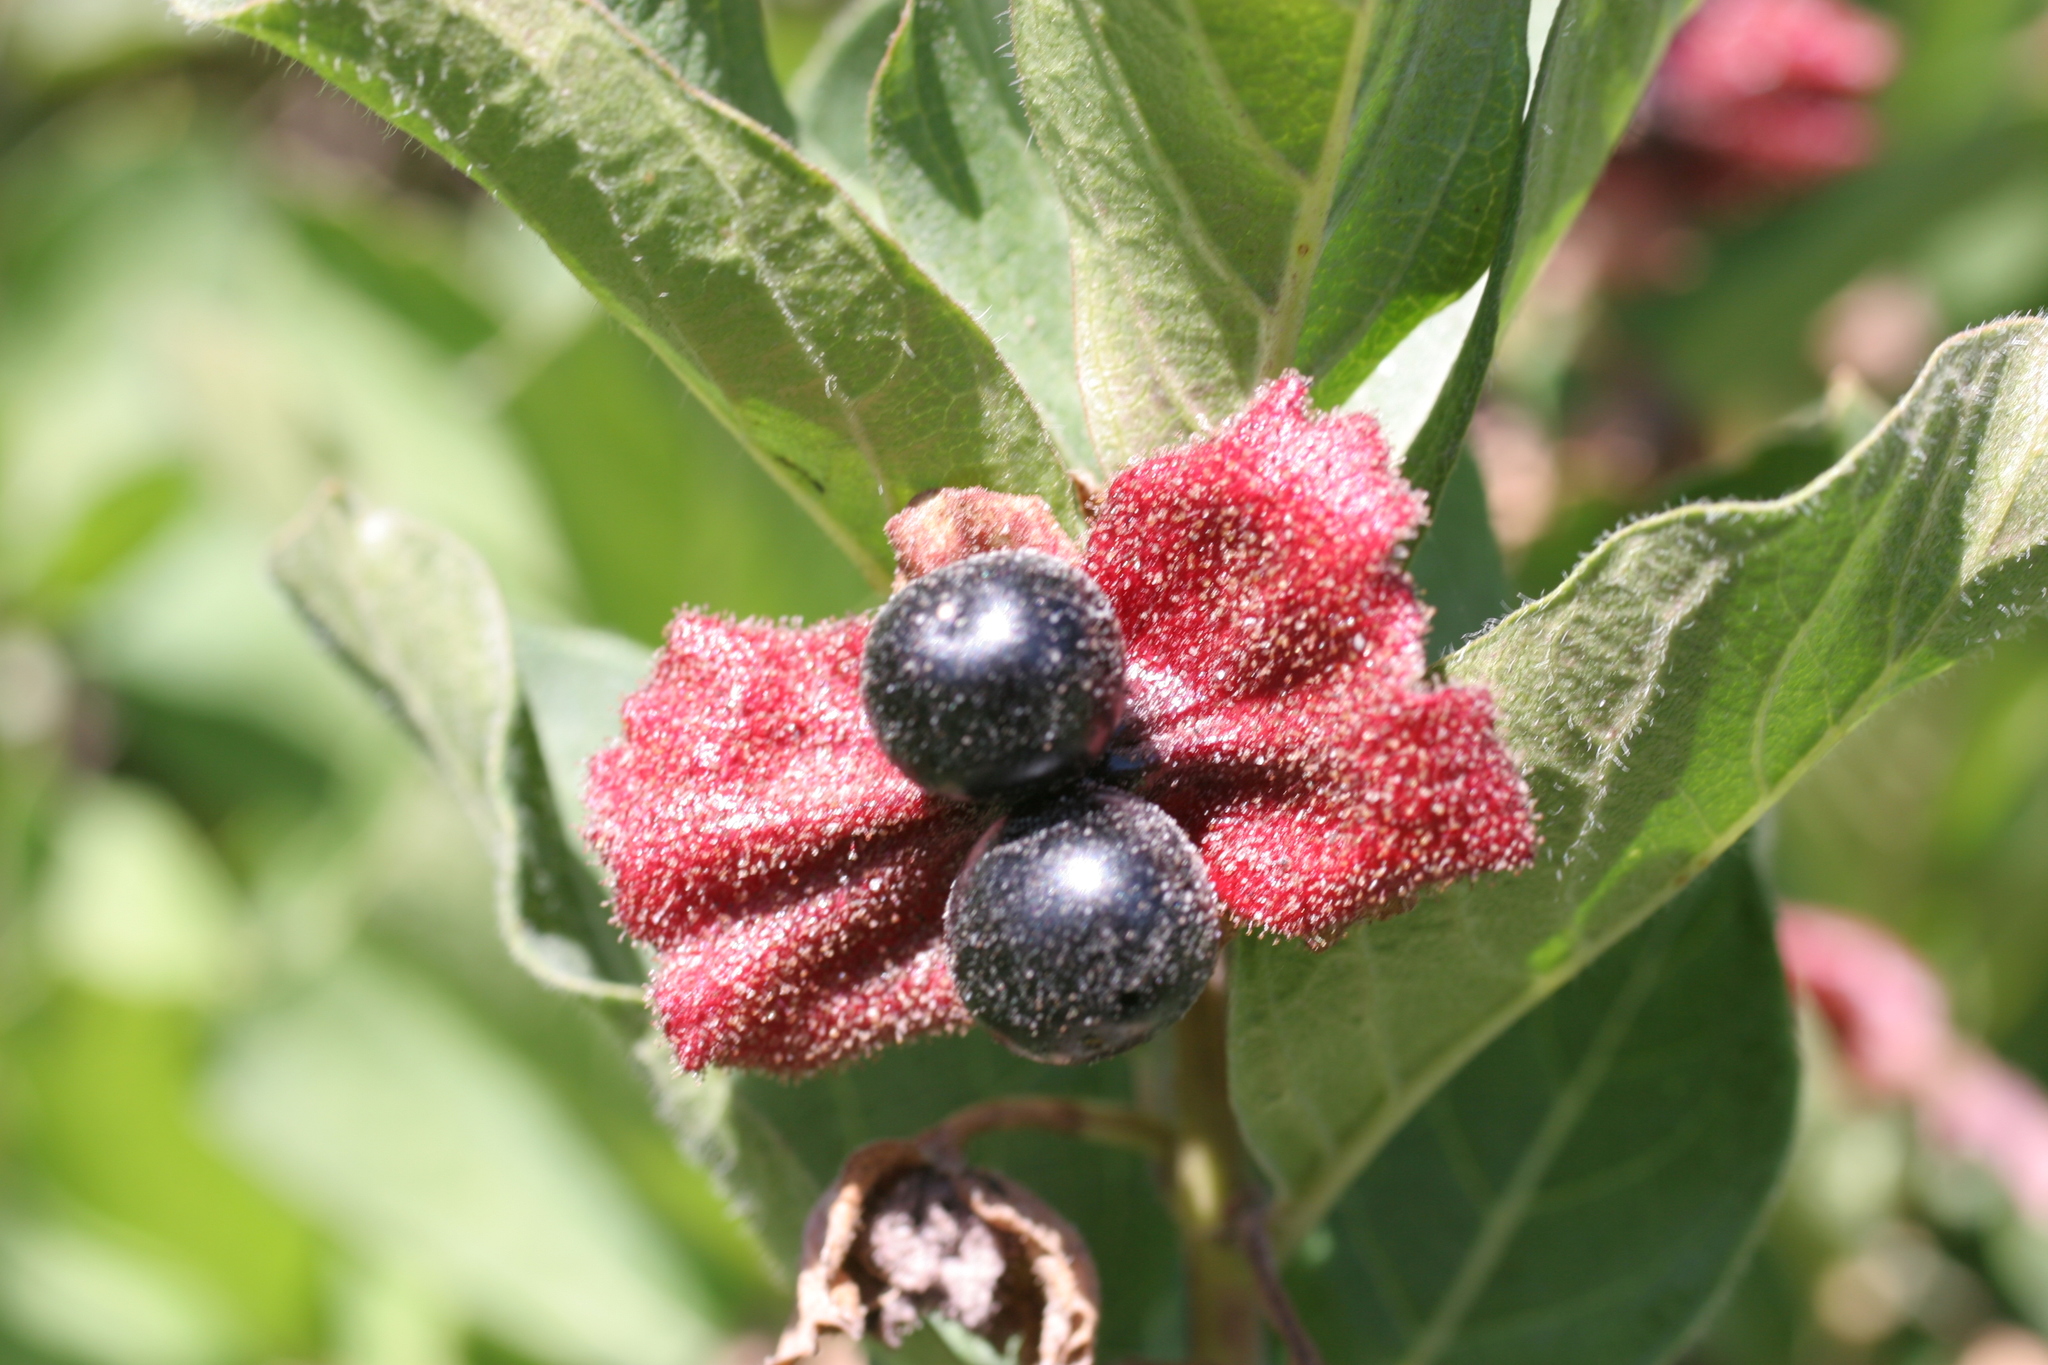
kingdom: Plantae
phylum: Tracheophyta
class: Magnoliopsida
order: Dipsacales
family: Caprifoliaceae
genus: Lonicera
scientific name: Lonicera involucrata
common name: Californian honeysuckle
